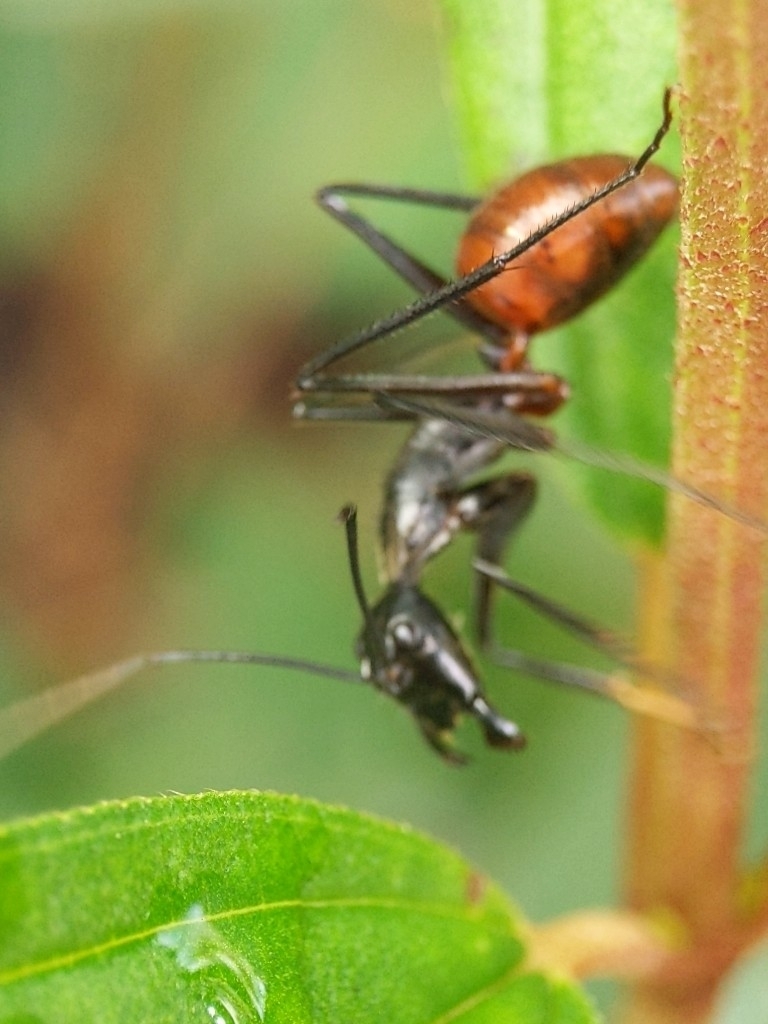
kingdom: Animalia
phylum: Arthropoda
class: Insecta
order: Hymenoptera
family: Formicidae
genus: Dinomyrmex
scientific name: Dinomyrmex
